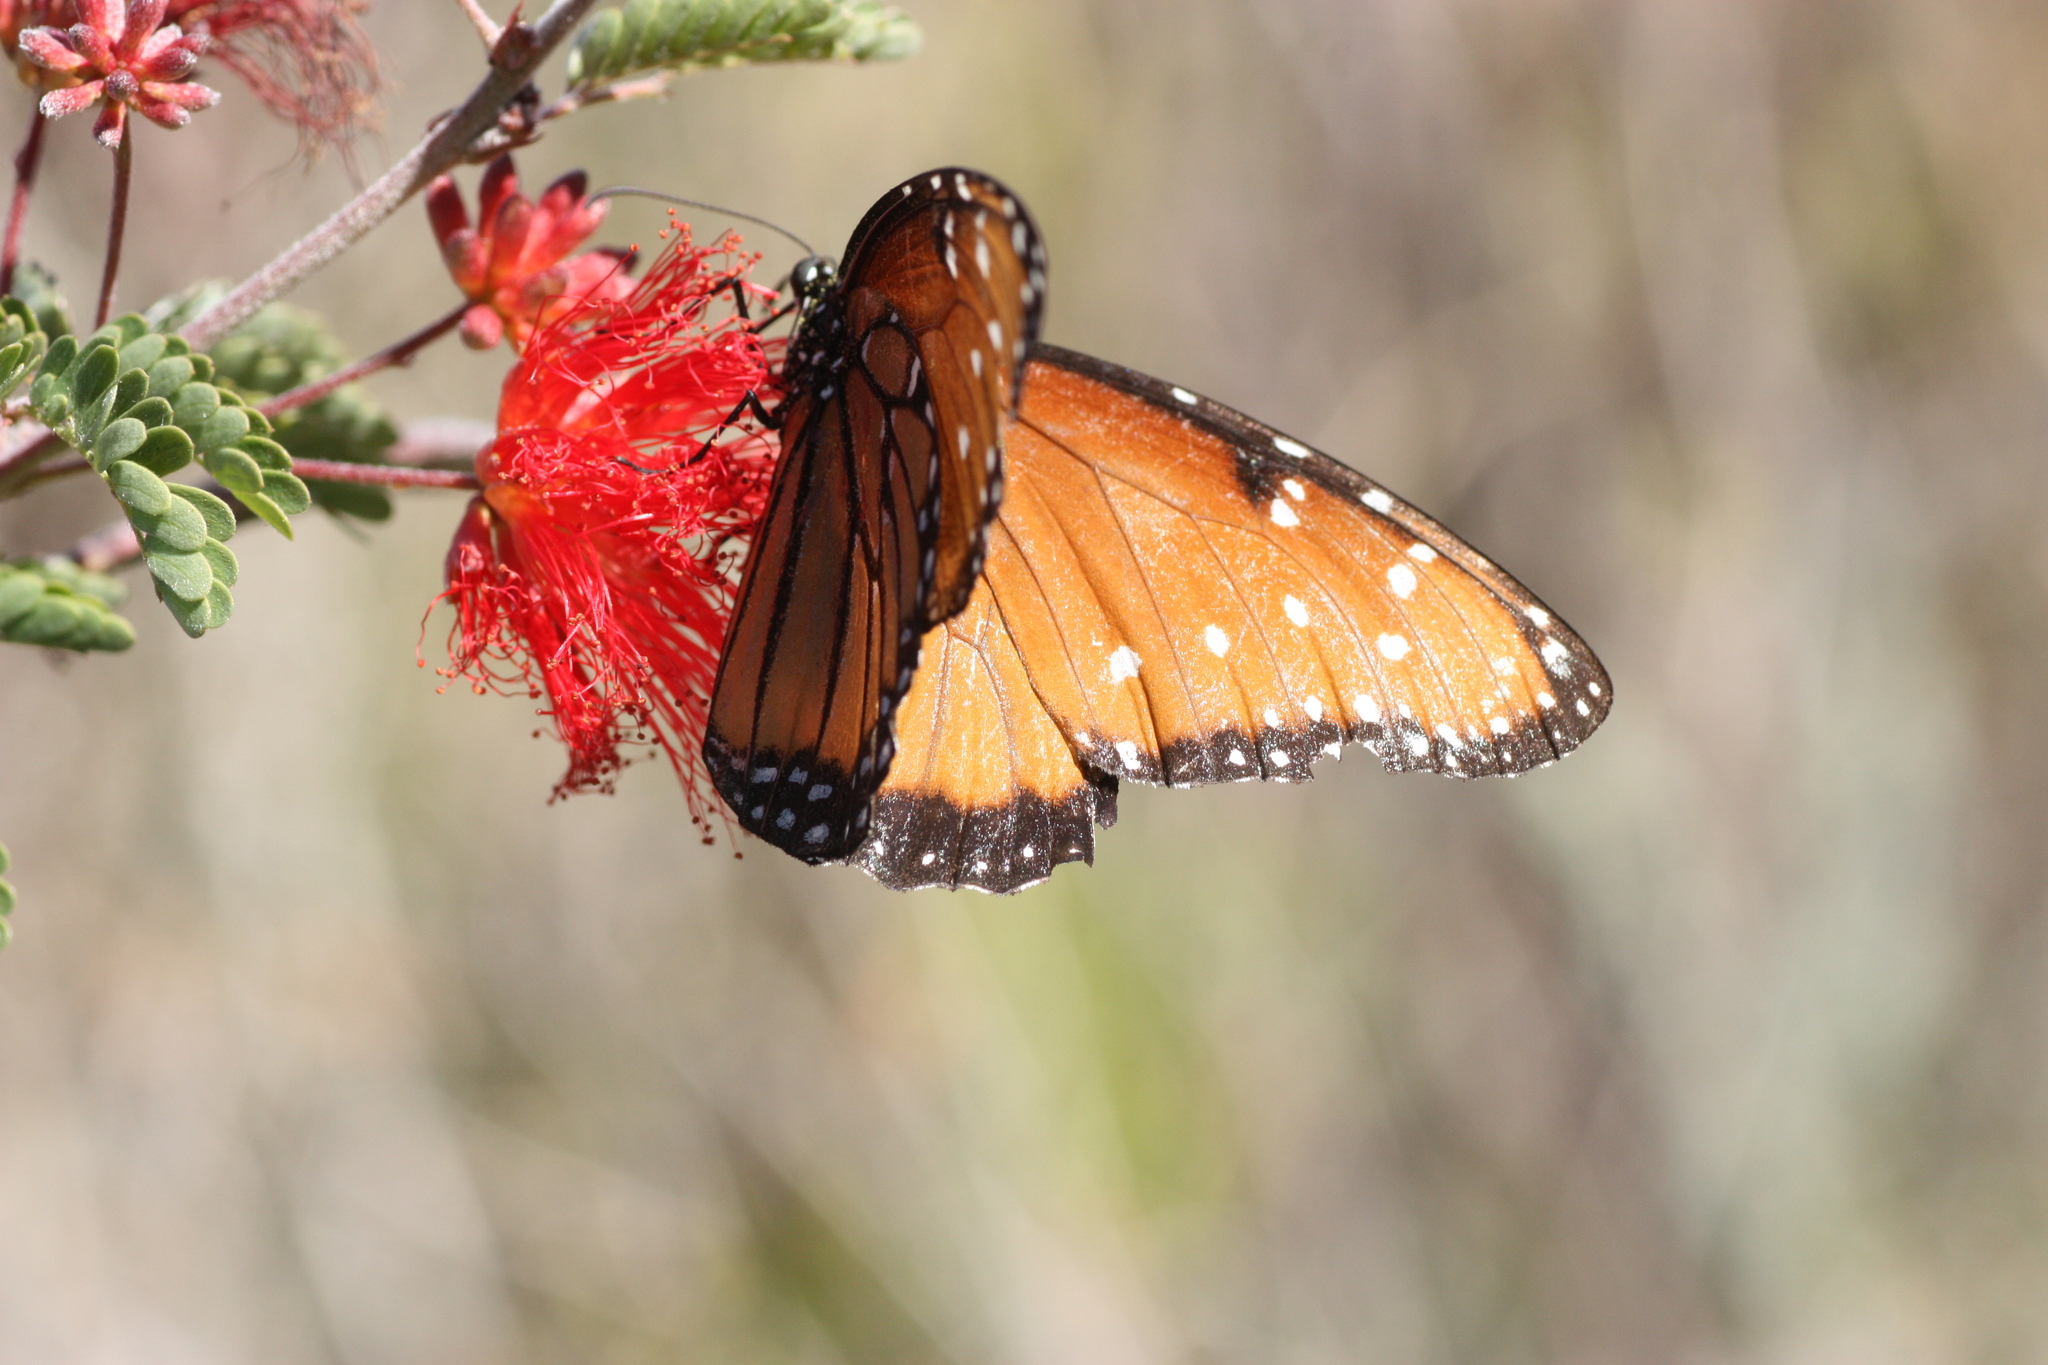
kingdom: Animalia
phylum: Arthropoda
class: Insecta
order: Lepidoptera
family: Nymphalidae
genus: Danaus
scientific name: Danaus gilippus
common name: Queen
